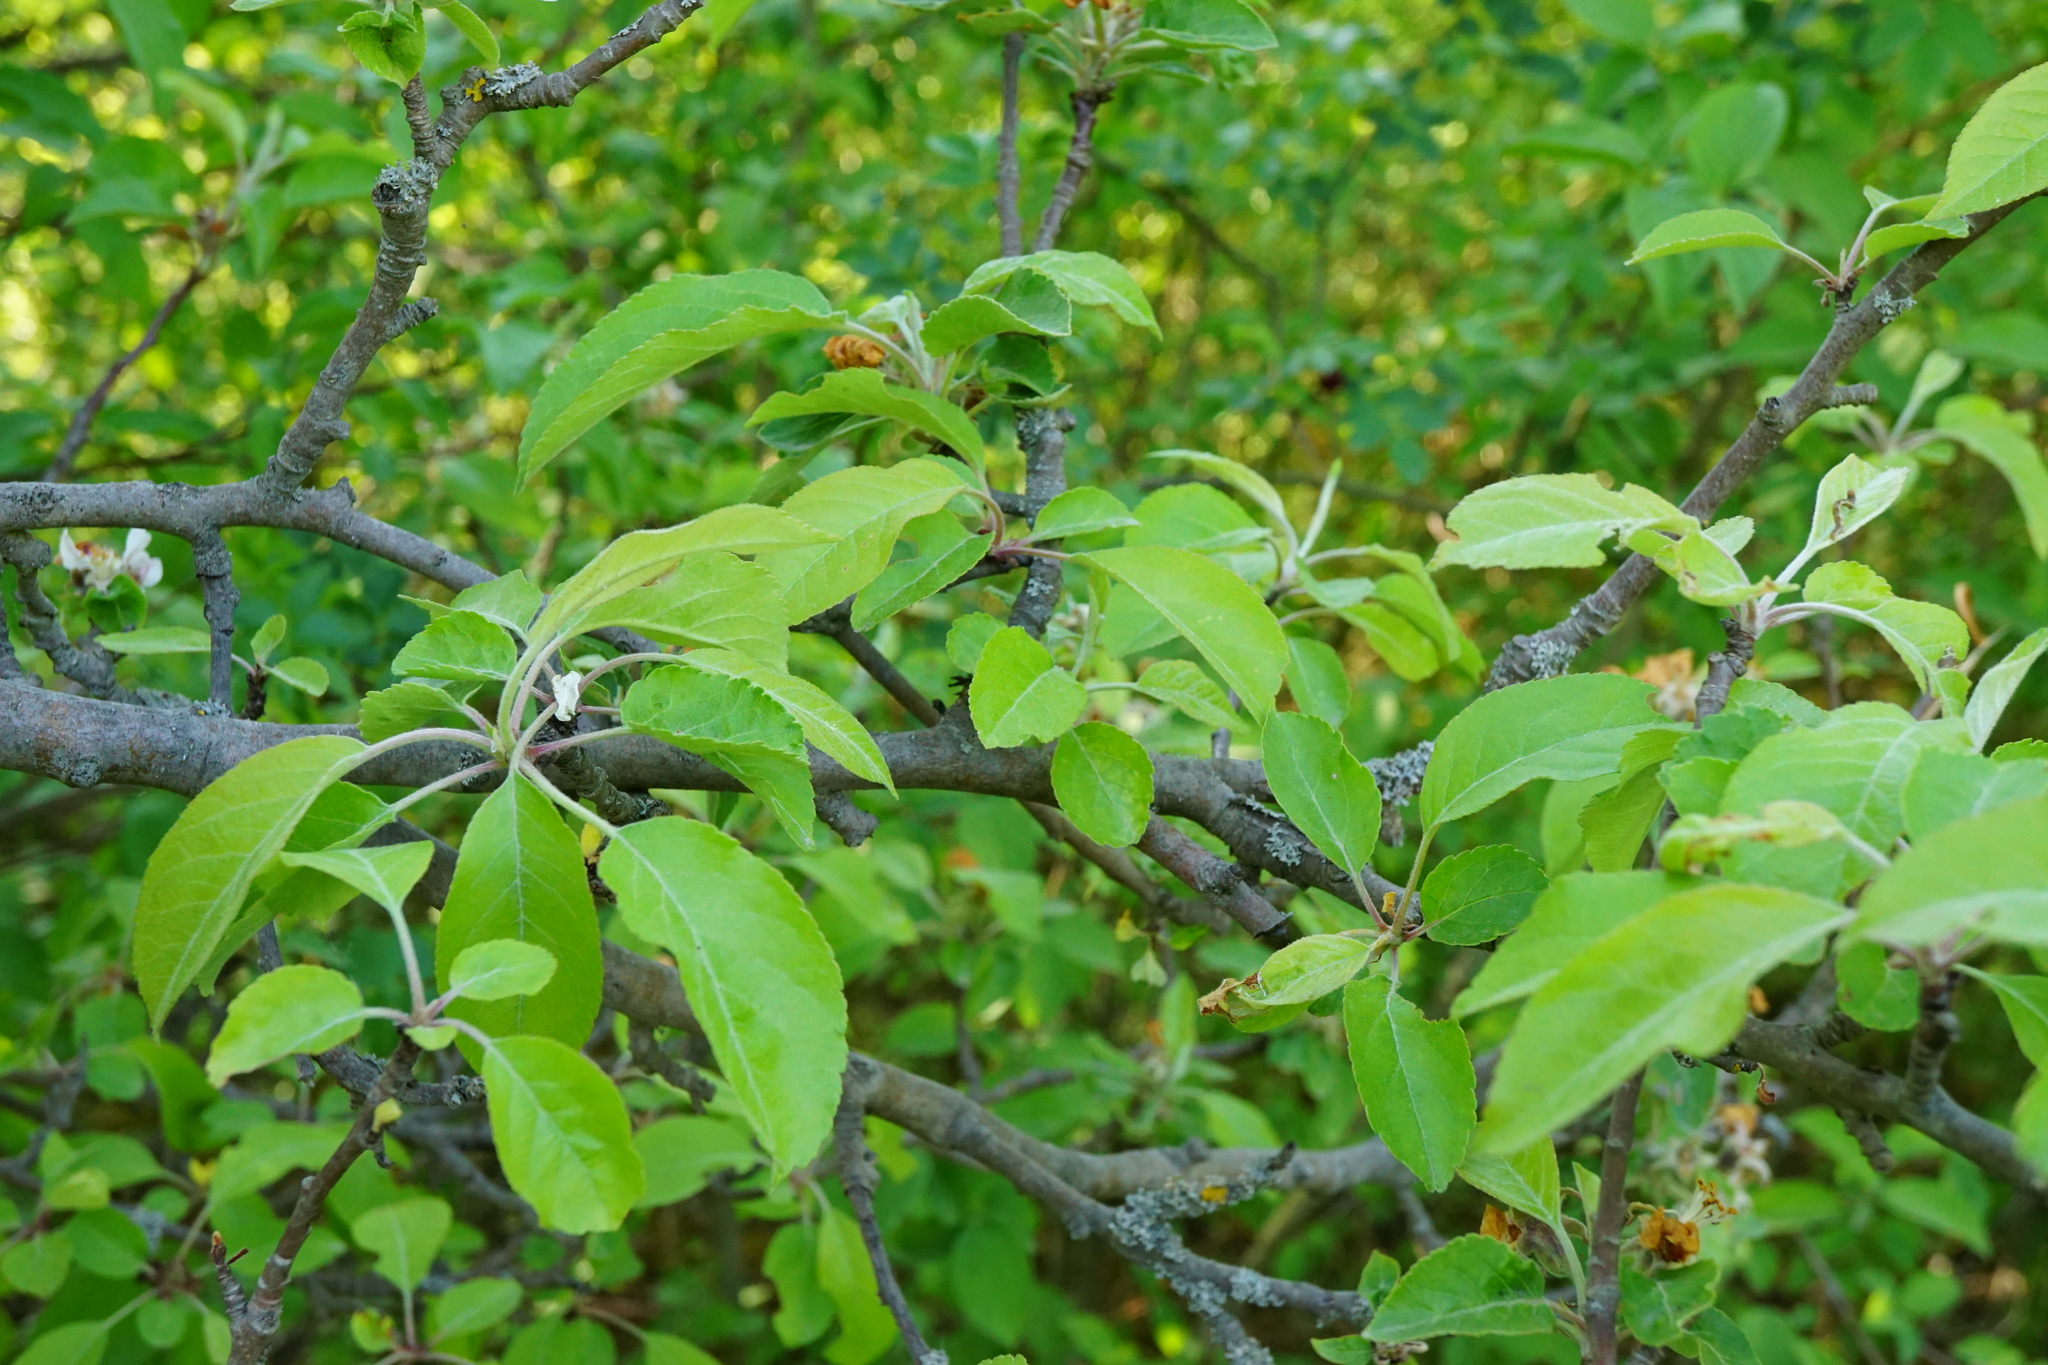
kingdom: Plantae
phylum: Tracheophyta
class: Magnoliopsida
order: Rosales
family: Rosaceae
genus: Malus
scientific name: Malus domestica
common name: Apple
